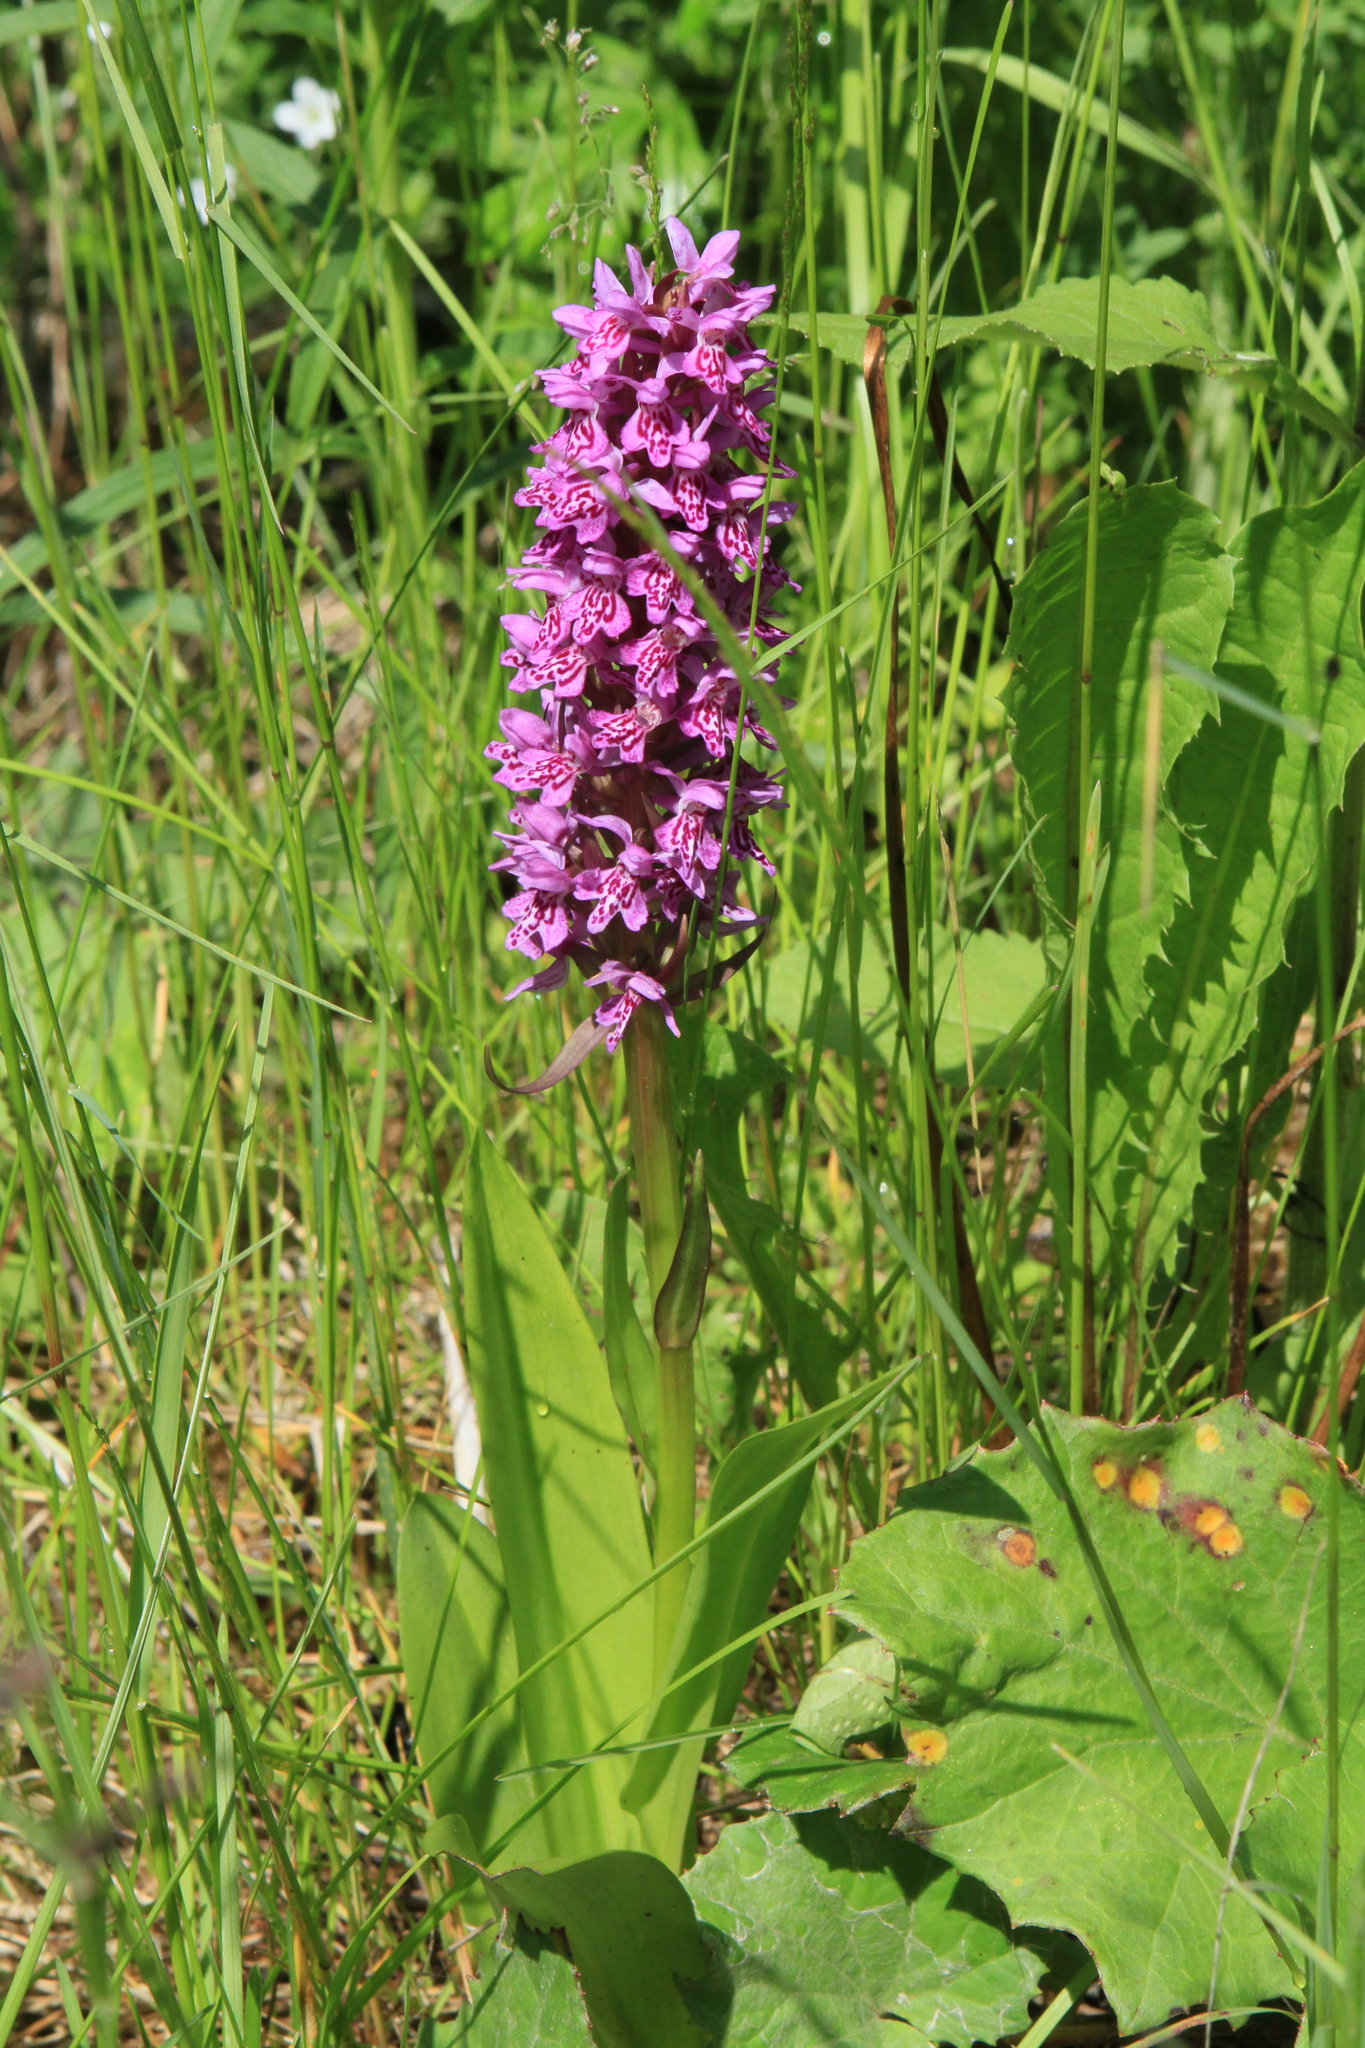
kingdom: Plantae
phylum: Tracheophyta
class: Liliopsida
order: Asparagales
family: Orchidaceae
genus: Dactylorhiza
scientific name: Dactylorhiza sibirica
